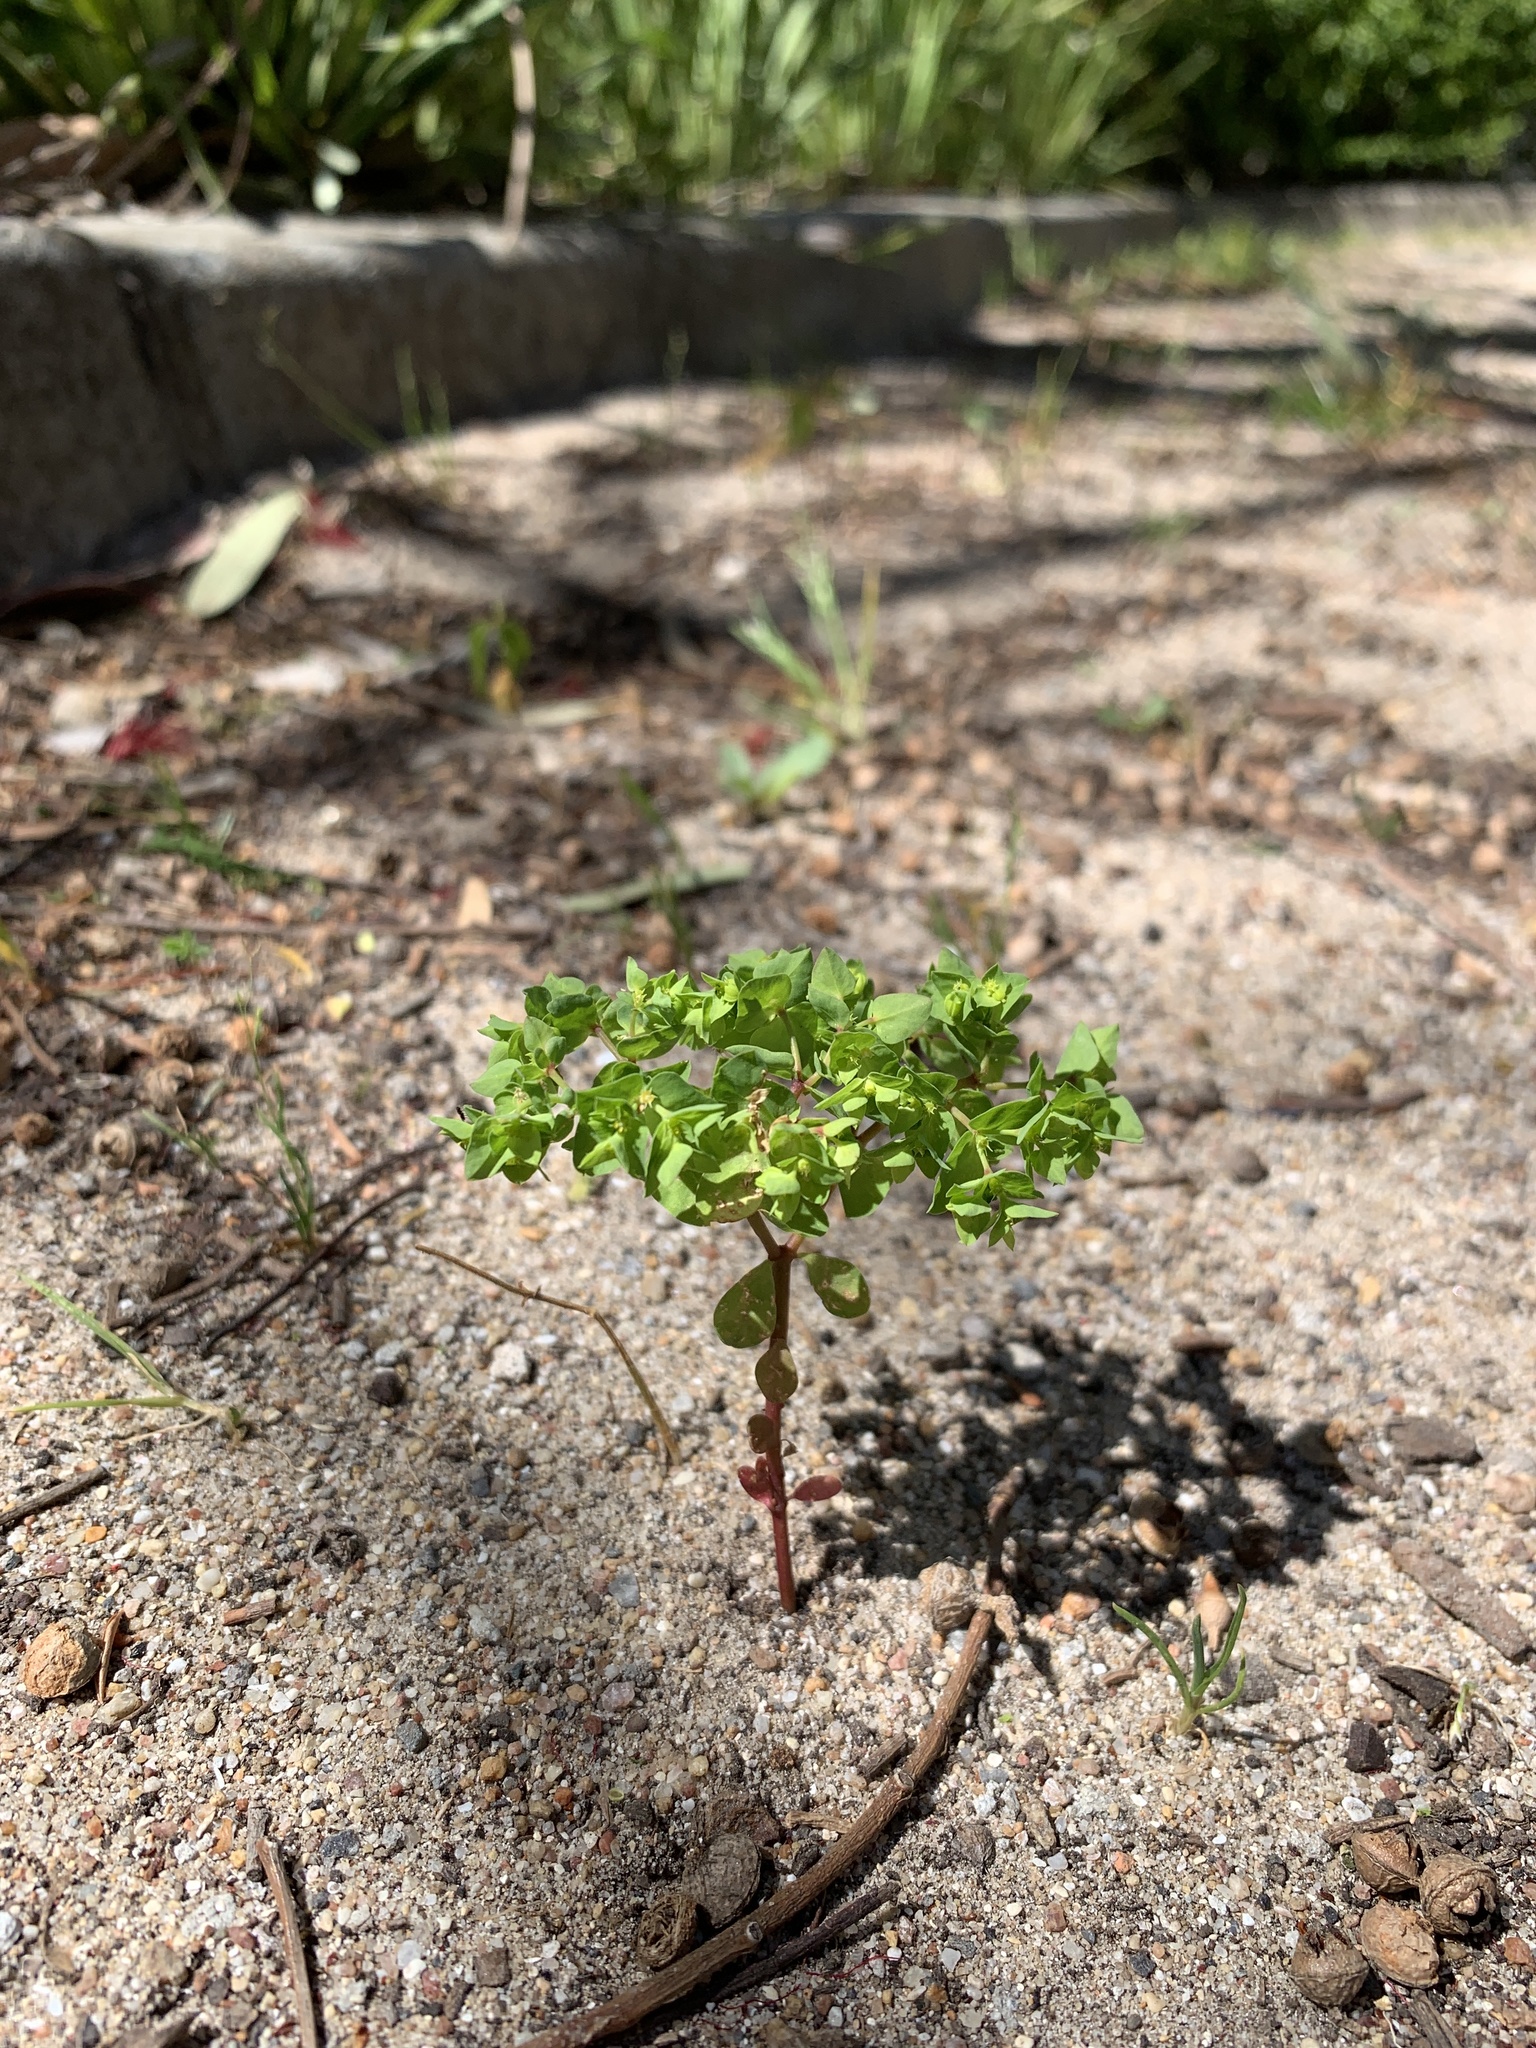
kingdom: Plantae
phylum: Tracheophyta
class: Magnoliopsida
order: Malpighiales
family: Euphorbiaceae
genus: Euphorbia
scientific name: Euphorbia peplus
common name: Petty spurge
